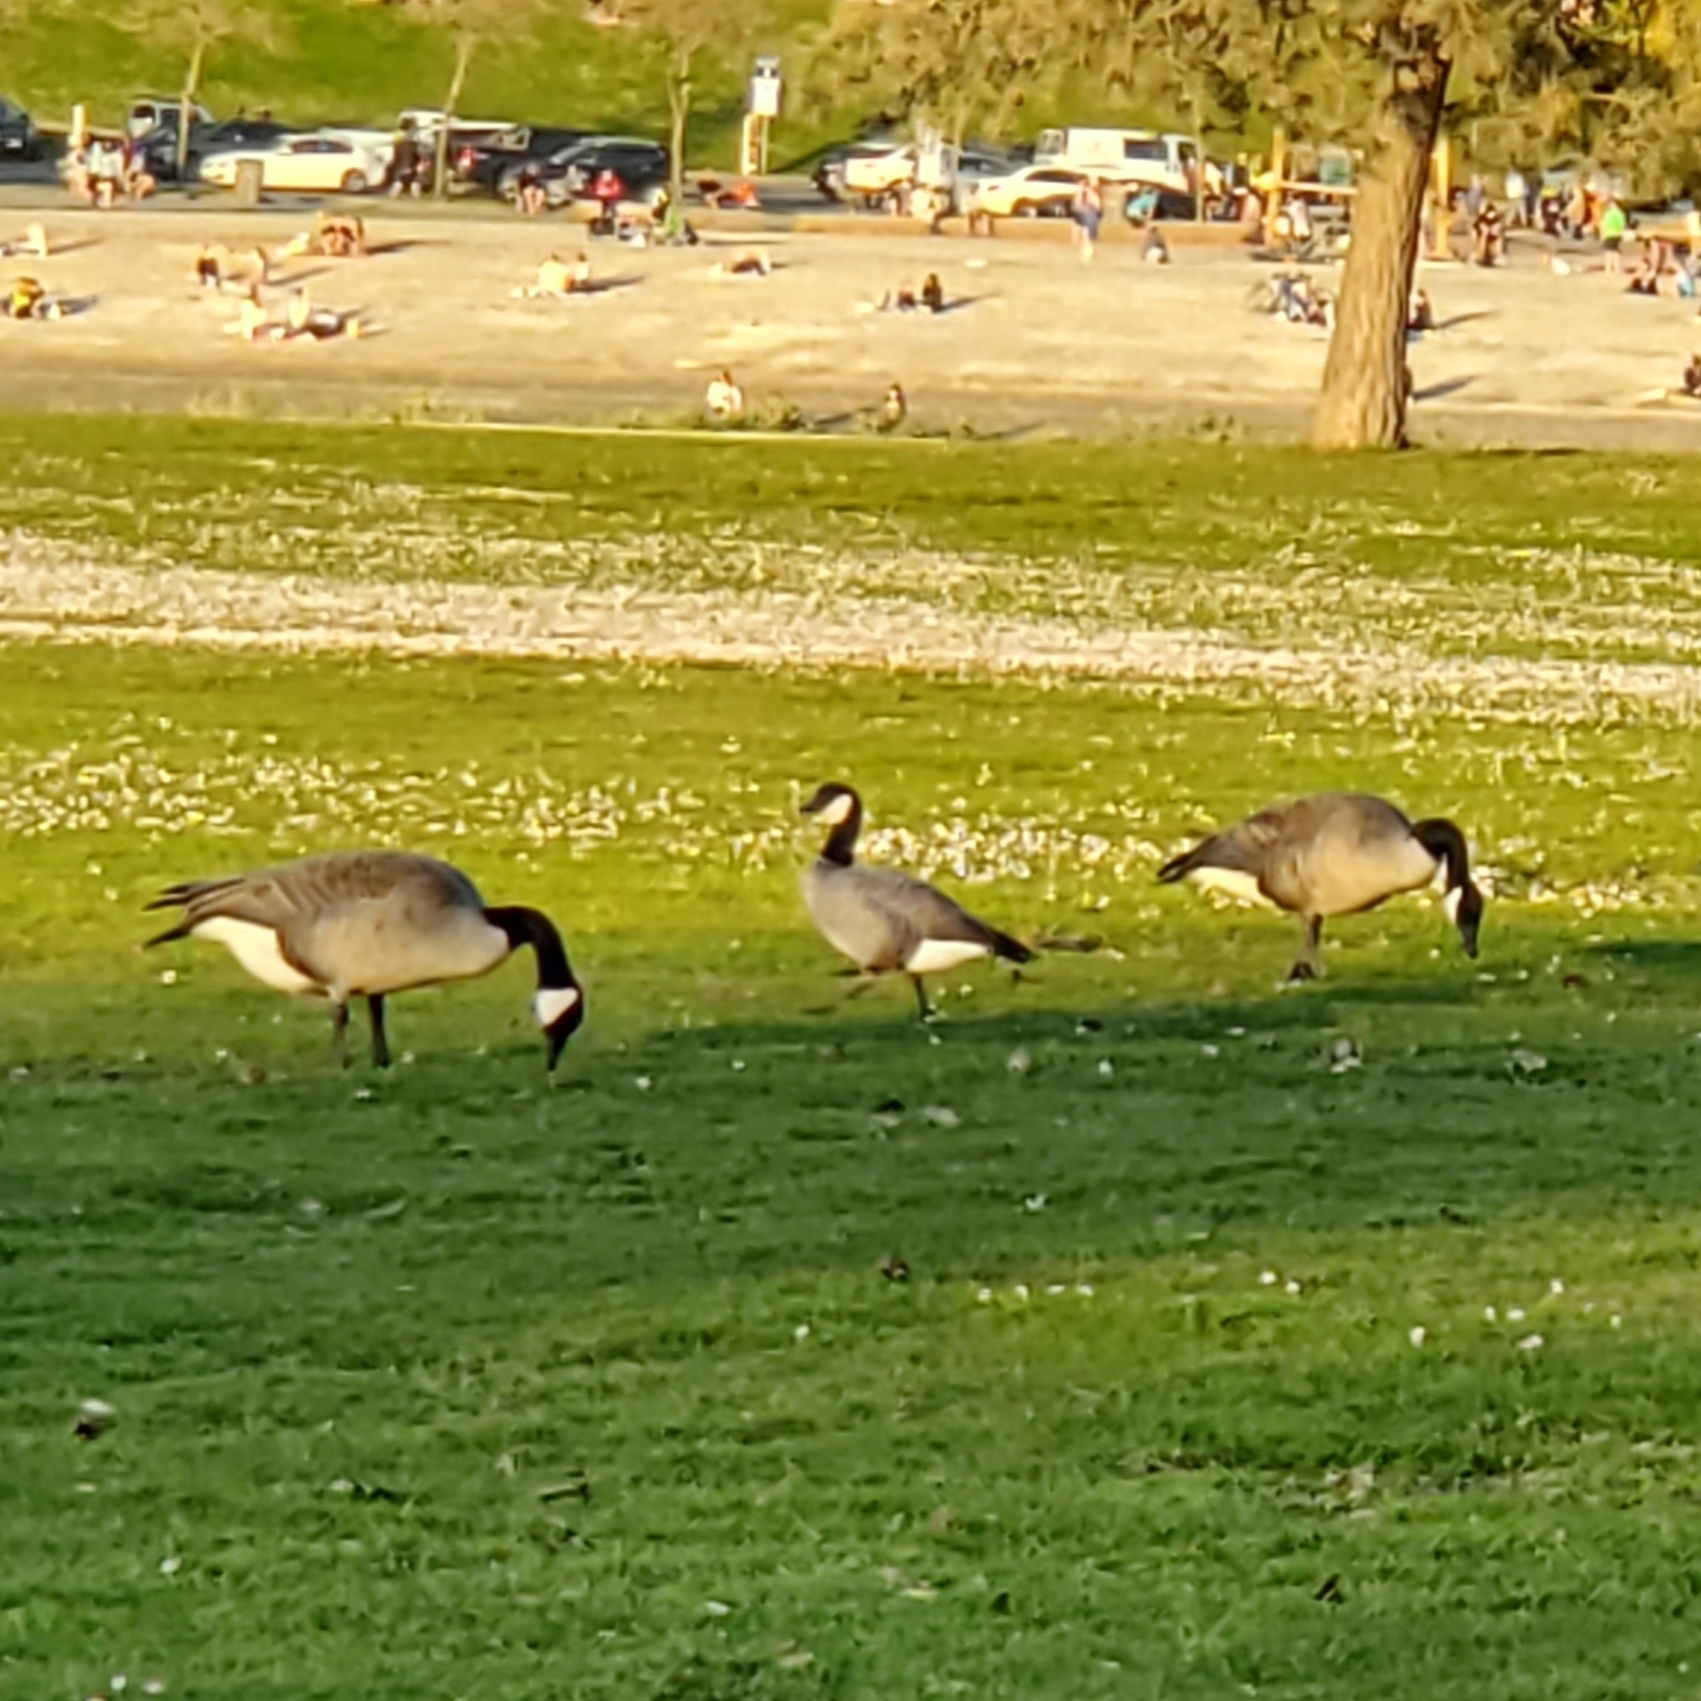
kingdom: Animalia
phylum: Chordata
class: Aves
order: Anseriformes
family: Anatidae
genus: Branta
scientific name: Branta hutchinsii
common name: Cackling goose
